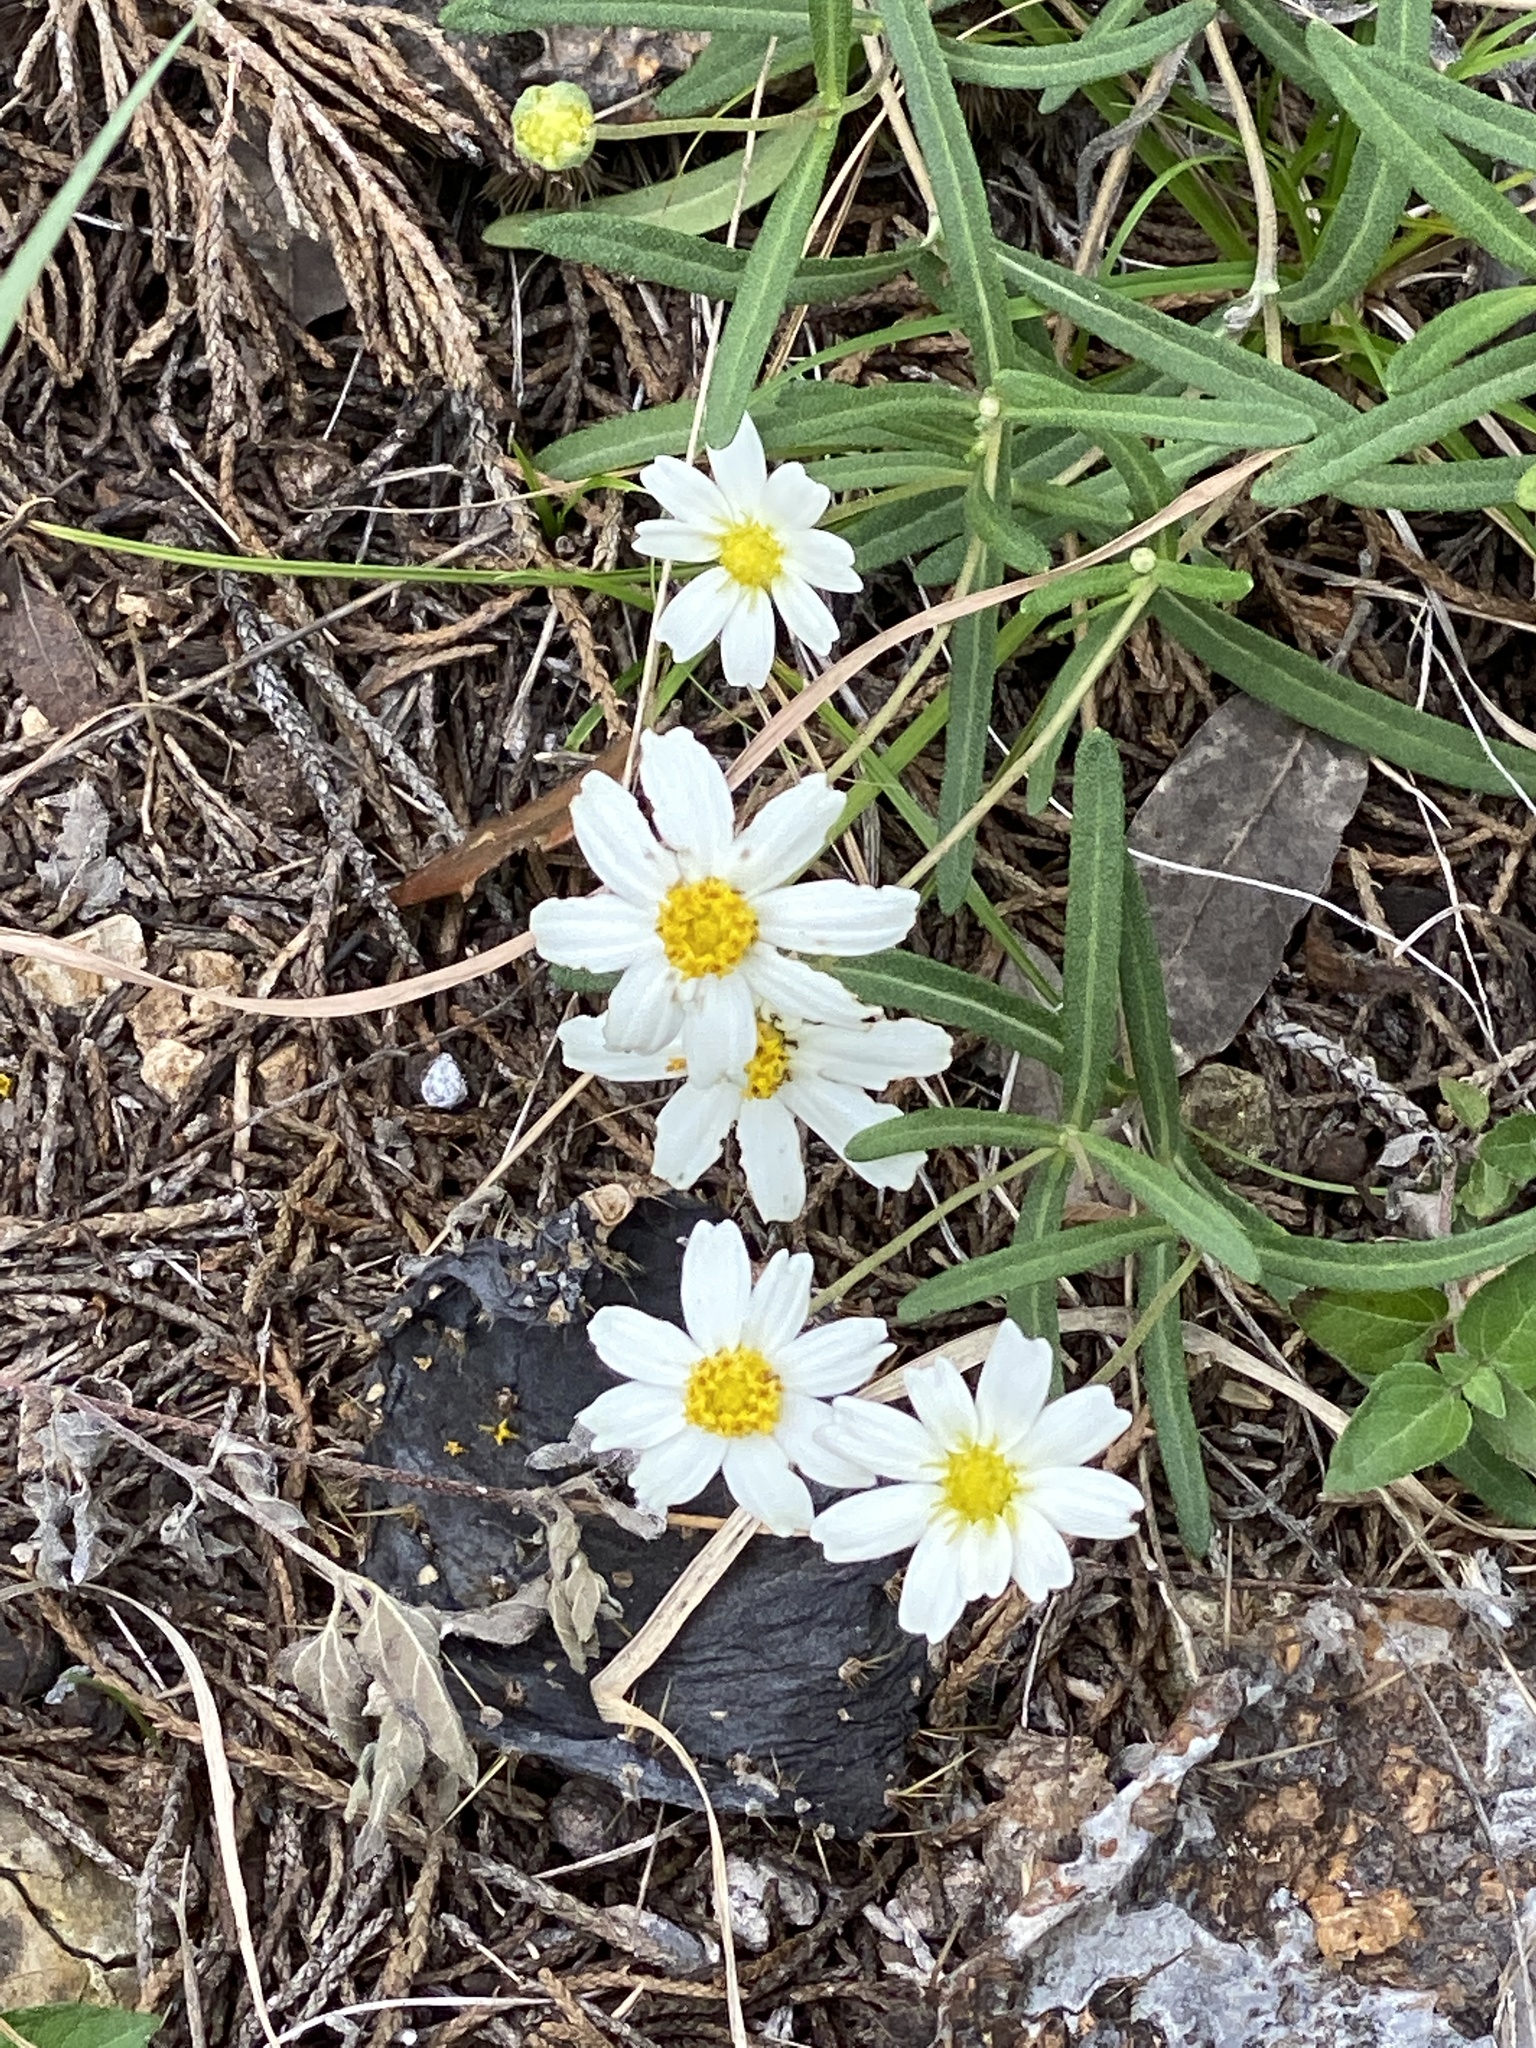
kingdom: Plantae
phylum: Tracheophyta
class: Magnoliopsida
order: Asterales
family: Asteraceae
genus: Melampodium
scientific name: Melampodium leucanthum
